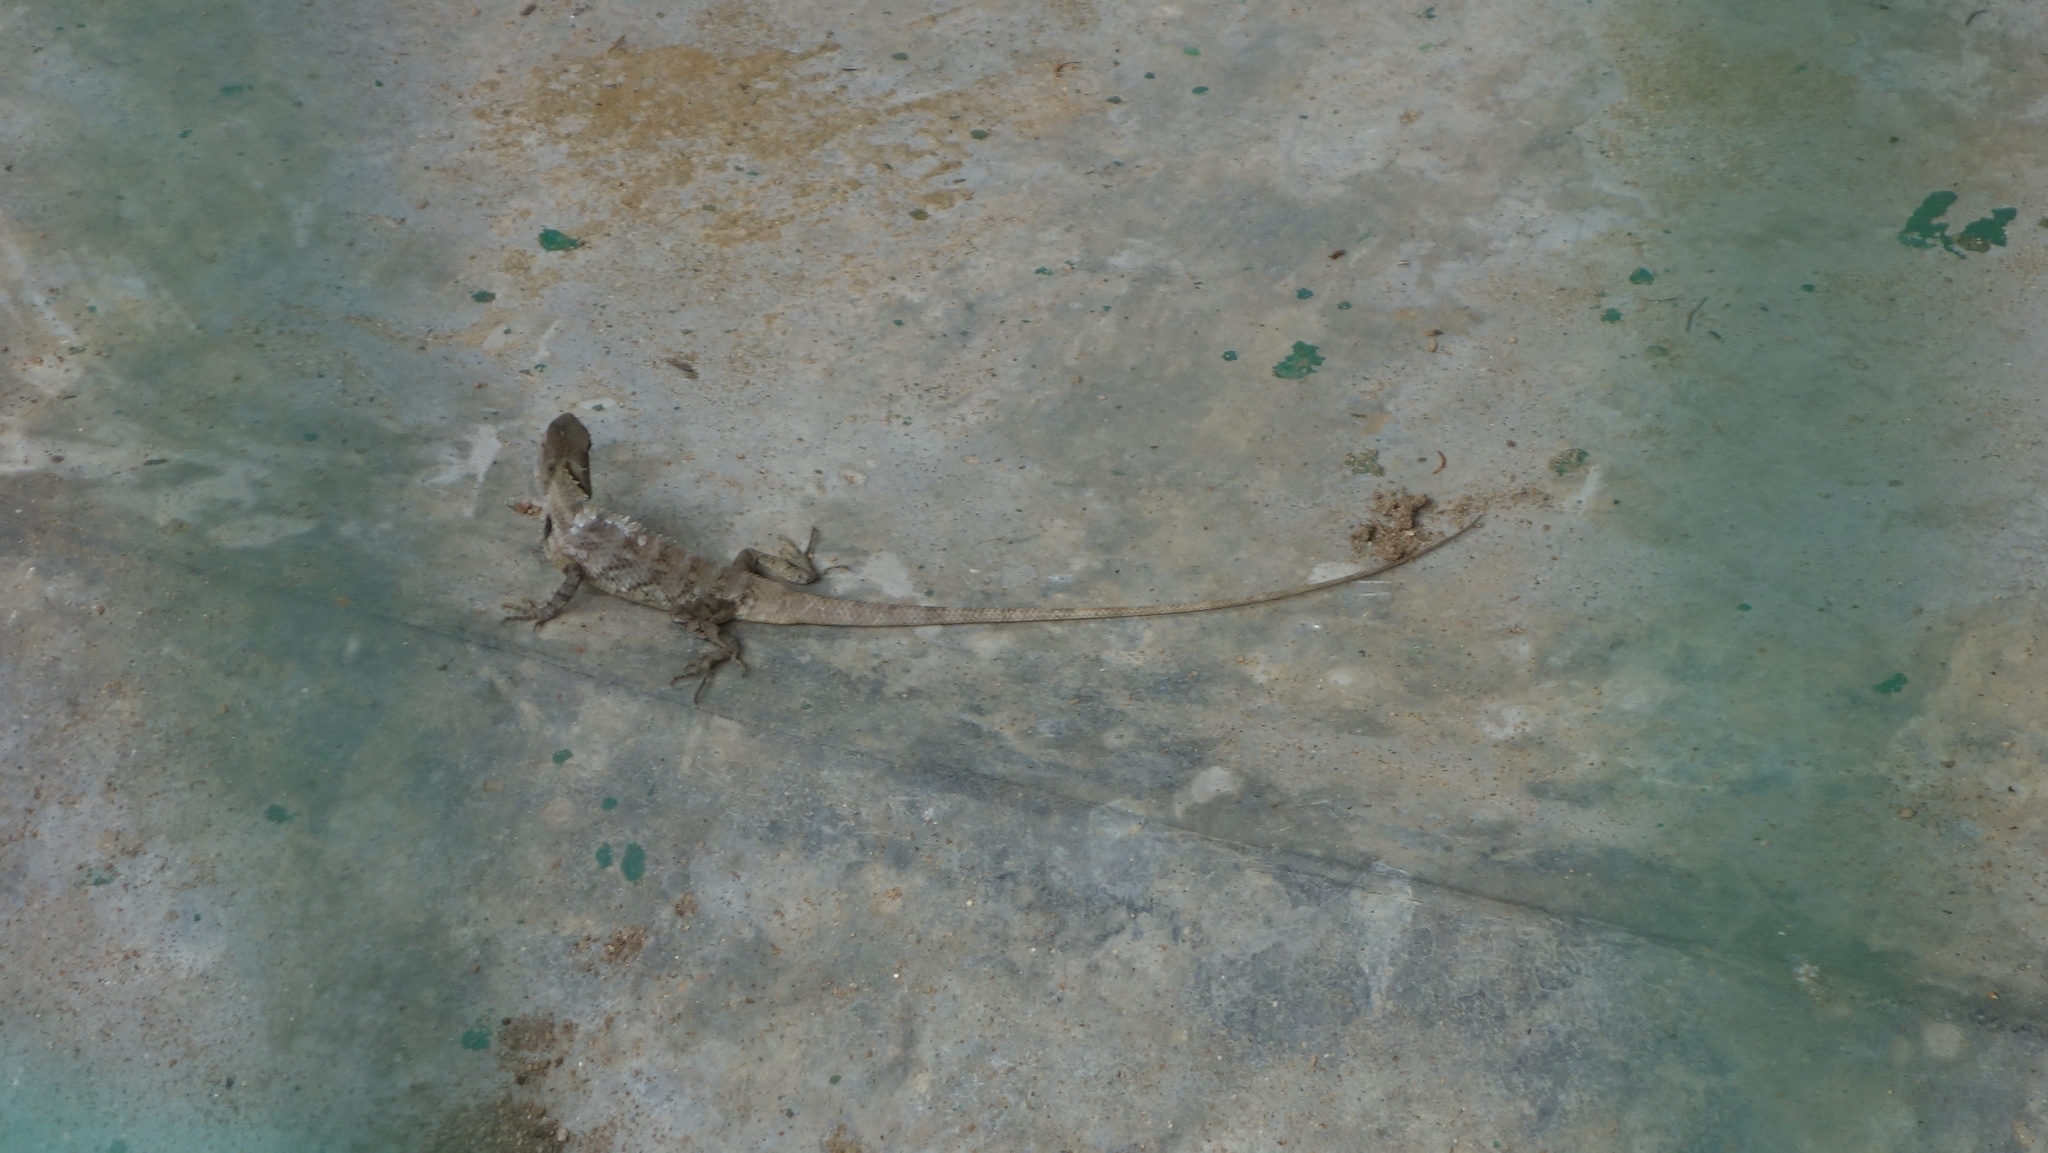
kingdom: Animalia
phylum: Chordata
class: Squamata
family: Agamidae
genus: Calotes
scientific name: Calotes versicolor
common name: Oriental garden lizard
